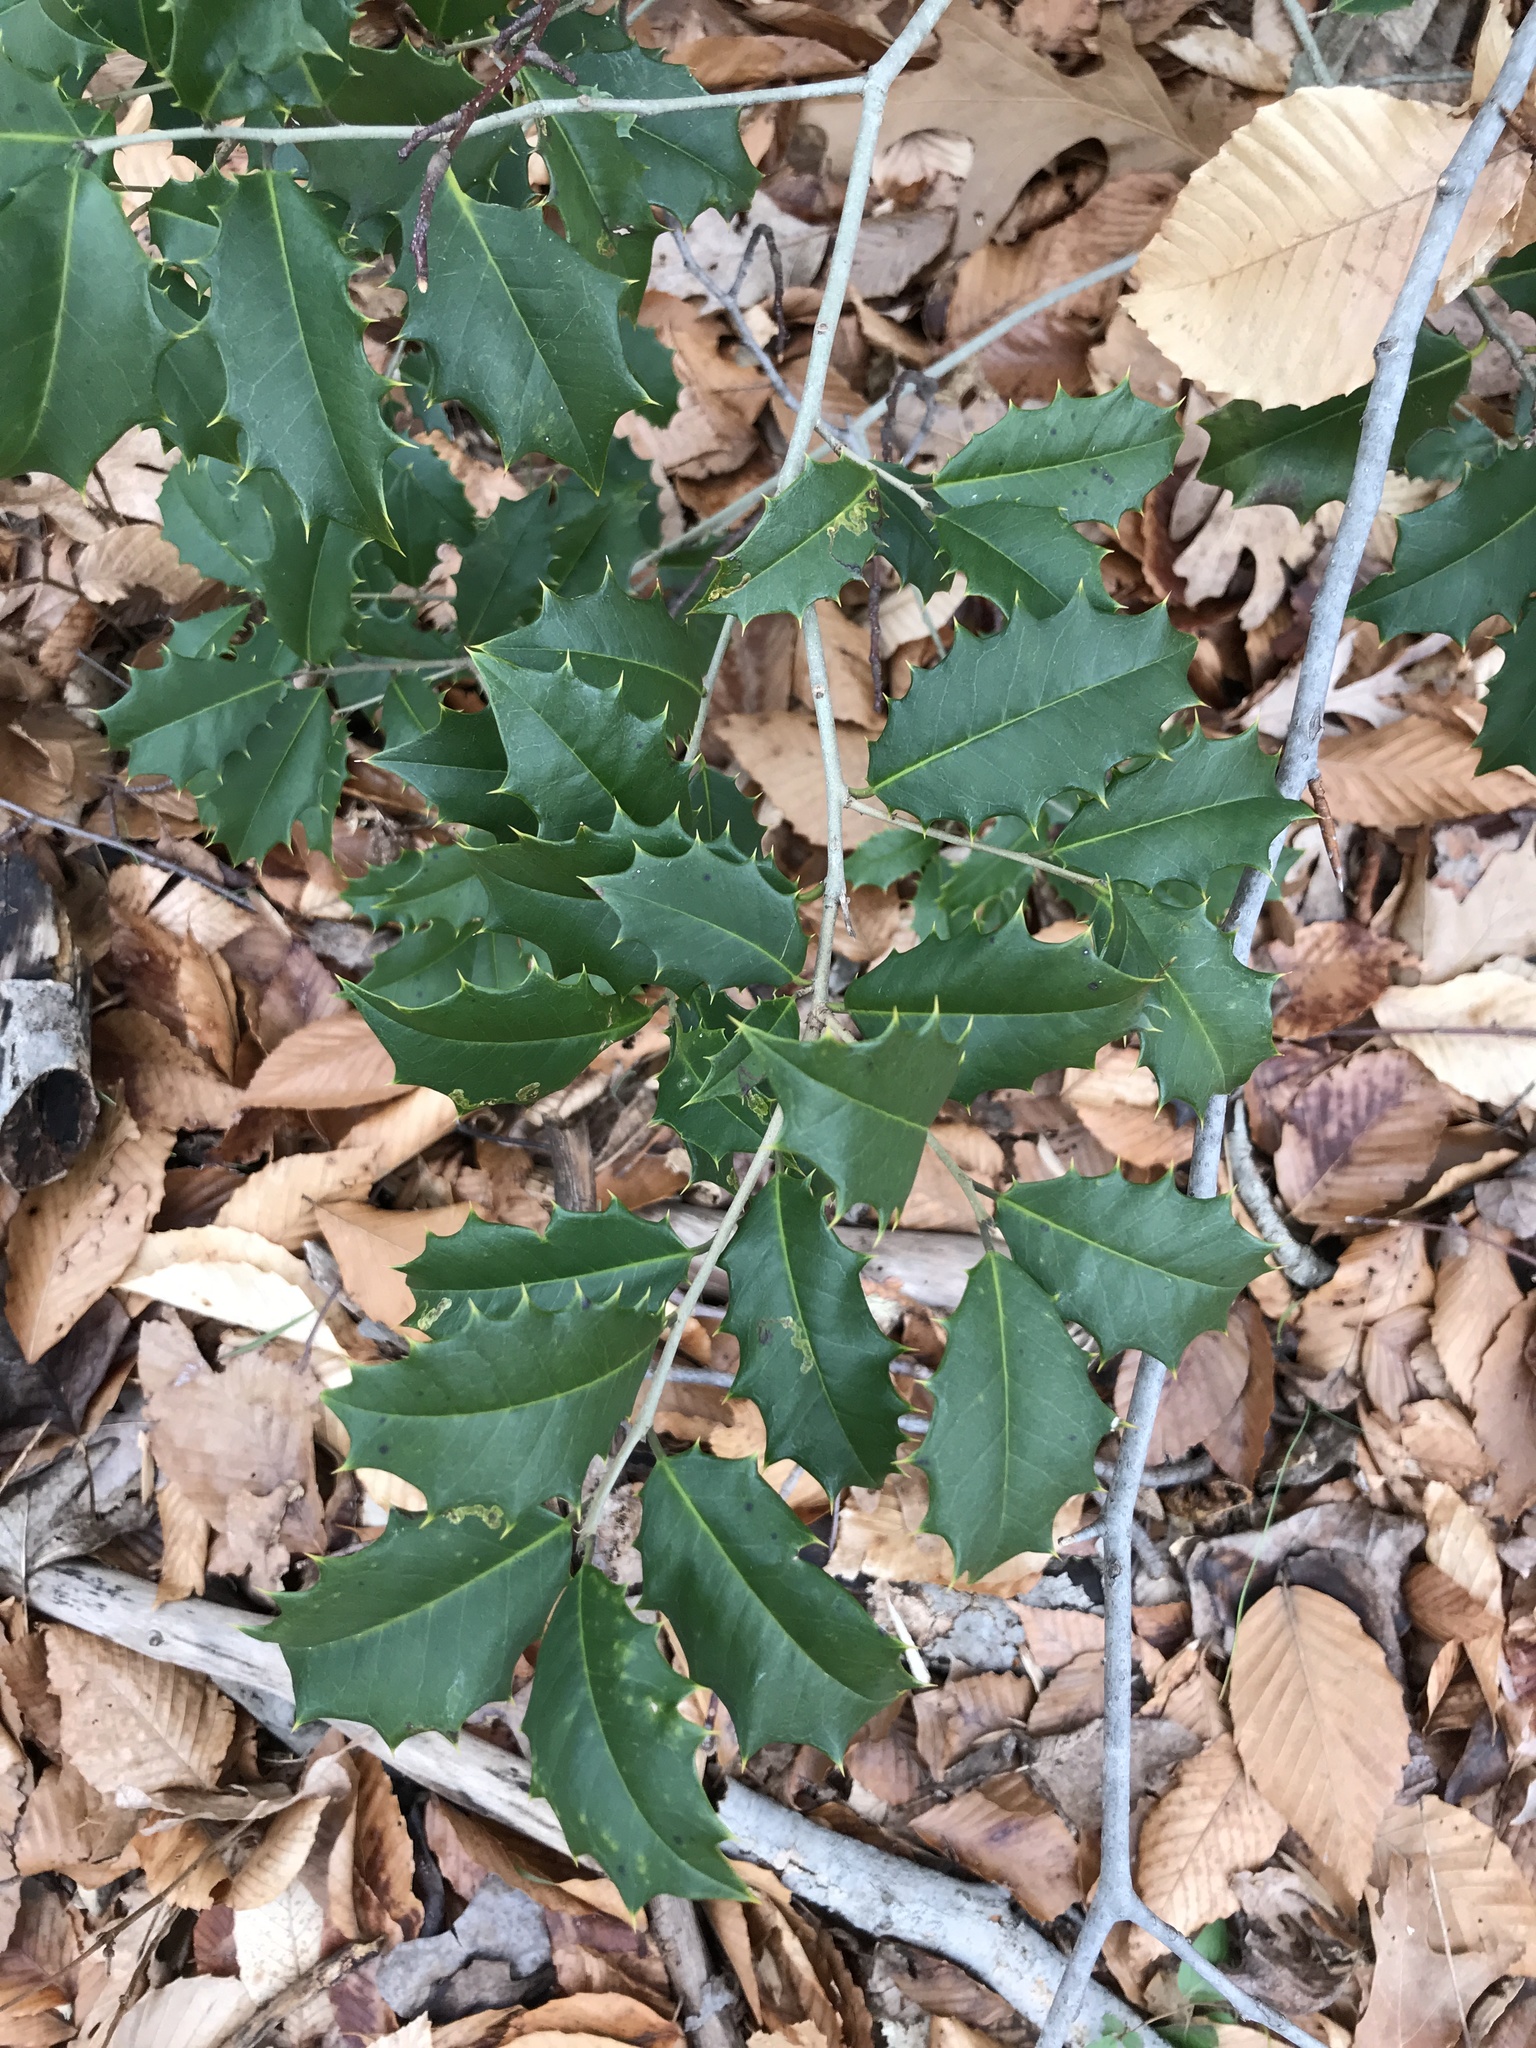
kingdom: Plantae
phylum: Tracheophyta
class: Magnoliopsida
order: Aquifoliales
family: Aquifoliaceae
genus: Ilex
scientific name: Ilex opaca
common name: American holly
